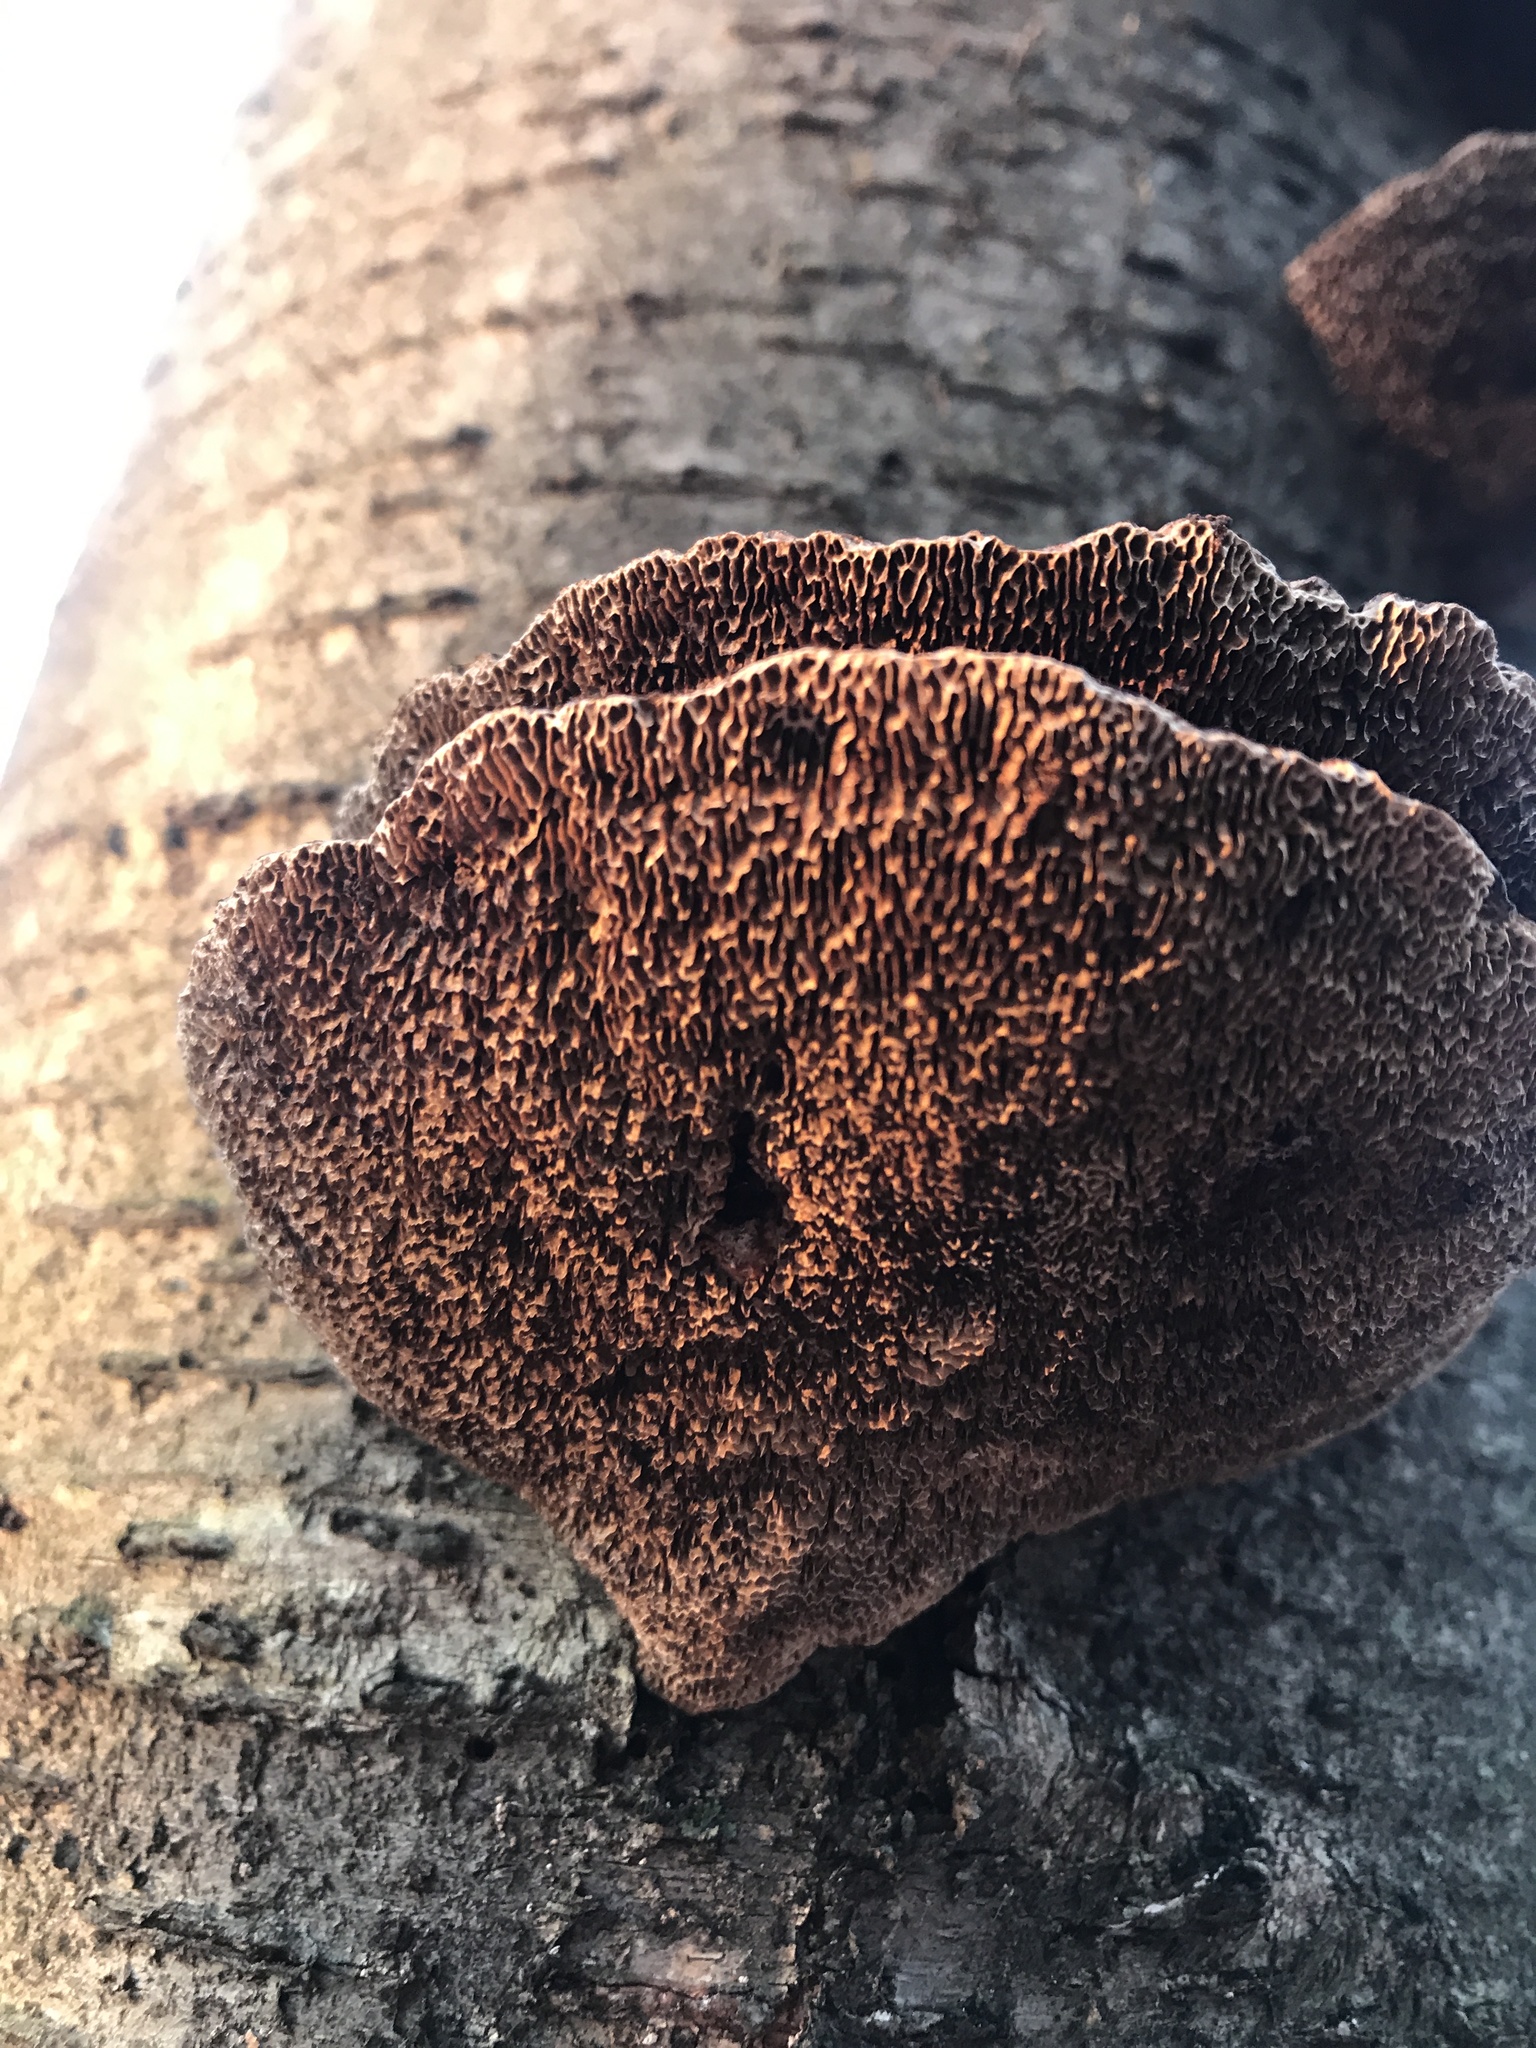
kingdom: Fungi
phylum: Basidiomycota
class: Agaricomycetes
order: Polyporales
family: Polyporaceae
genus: Daedaleopsis
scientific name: Daedaleopsis confragosa
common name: Blushing bracket
